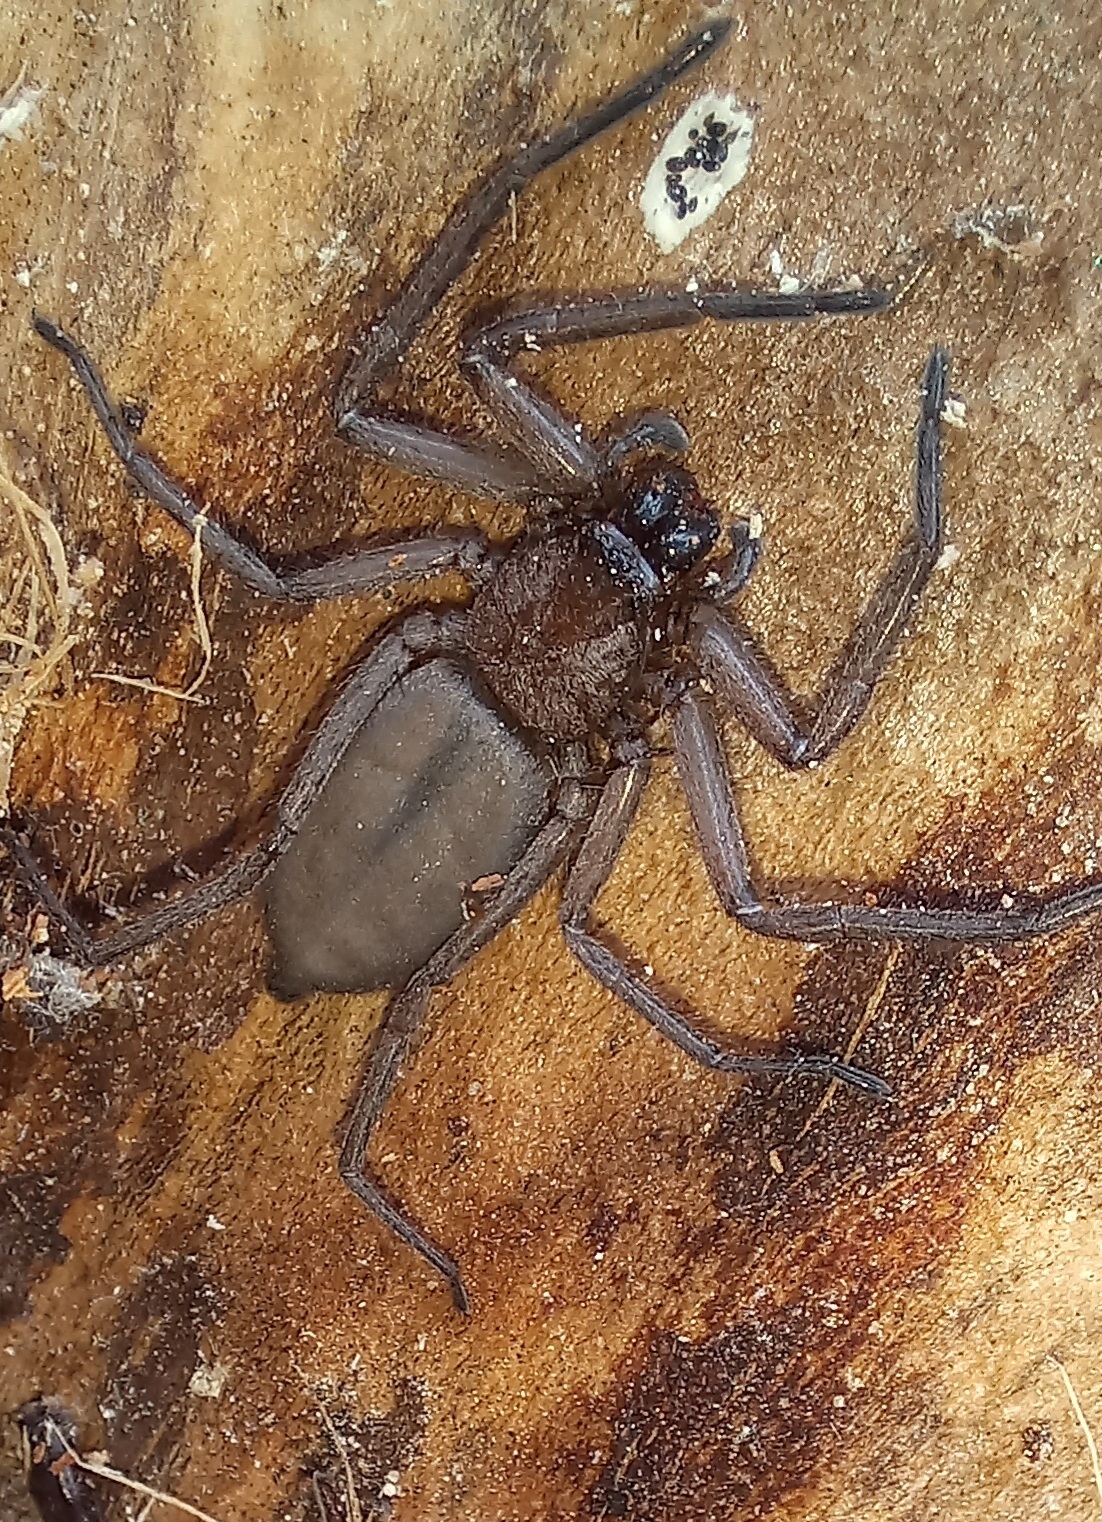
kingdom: Animalia
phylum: Arthropoda
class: Arachnida
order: Araneae
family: Trochanteriidae
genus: Hemicloea
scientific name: Hemicloea rogenhoferi
